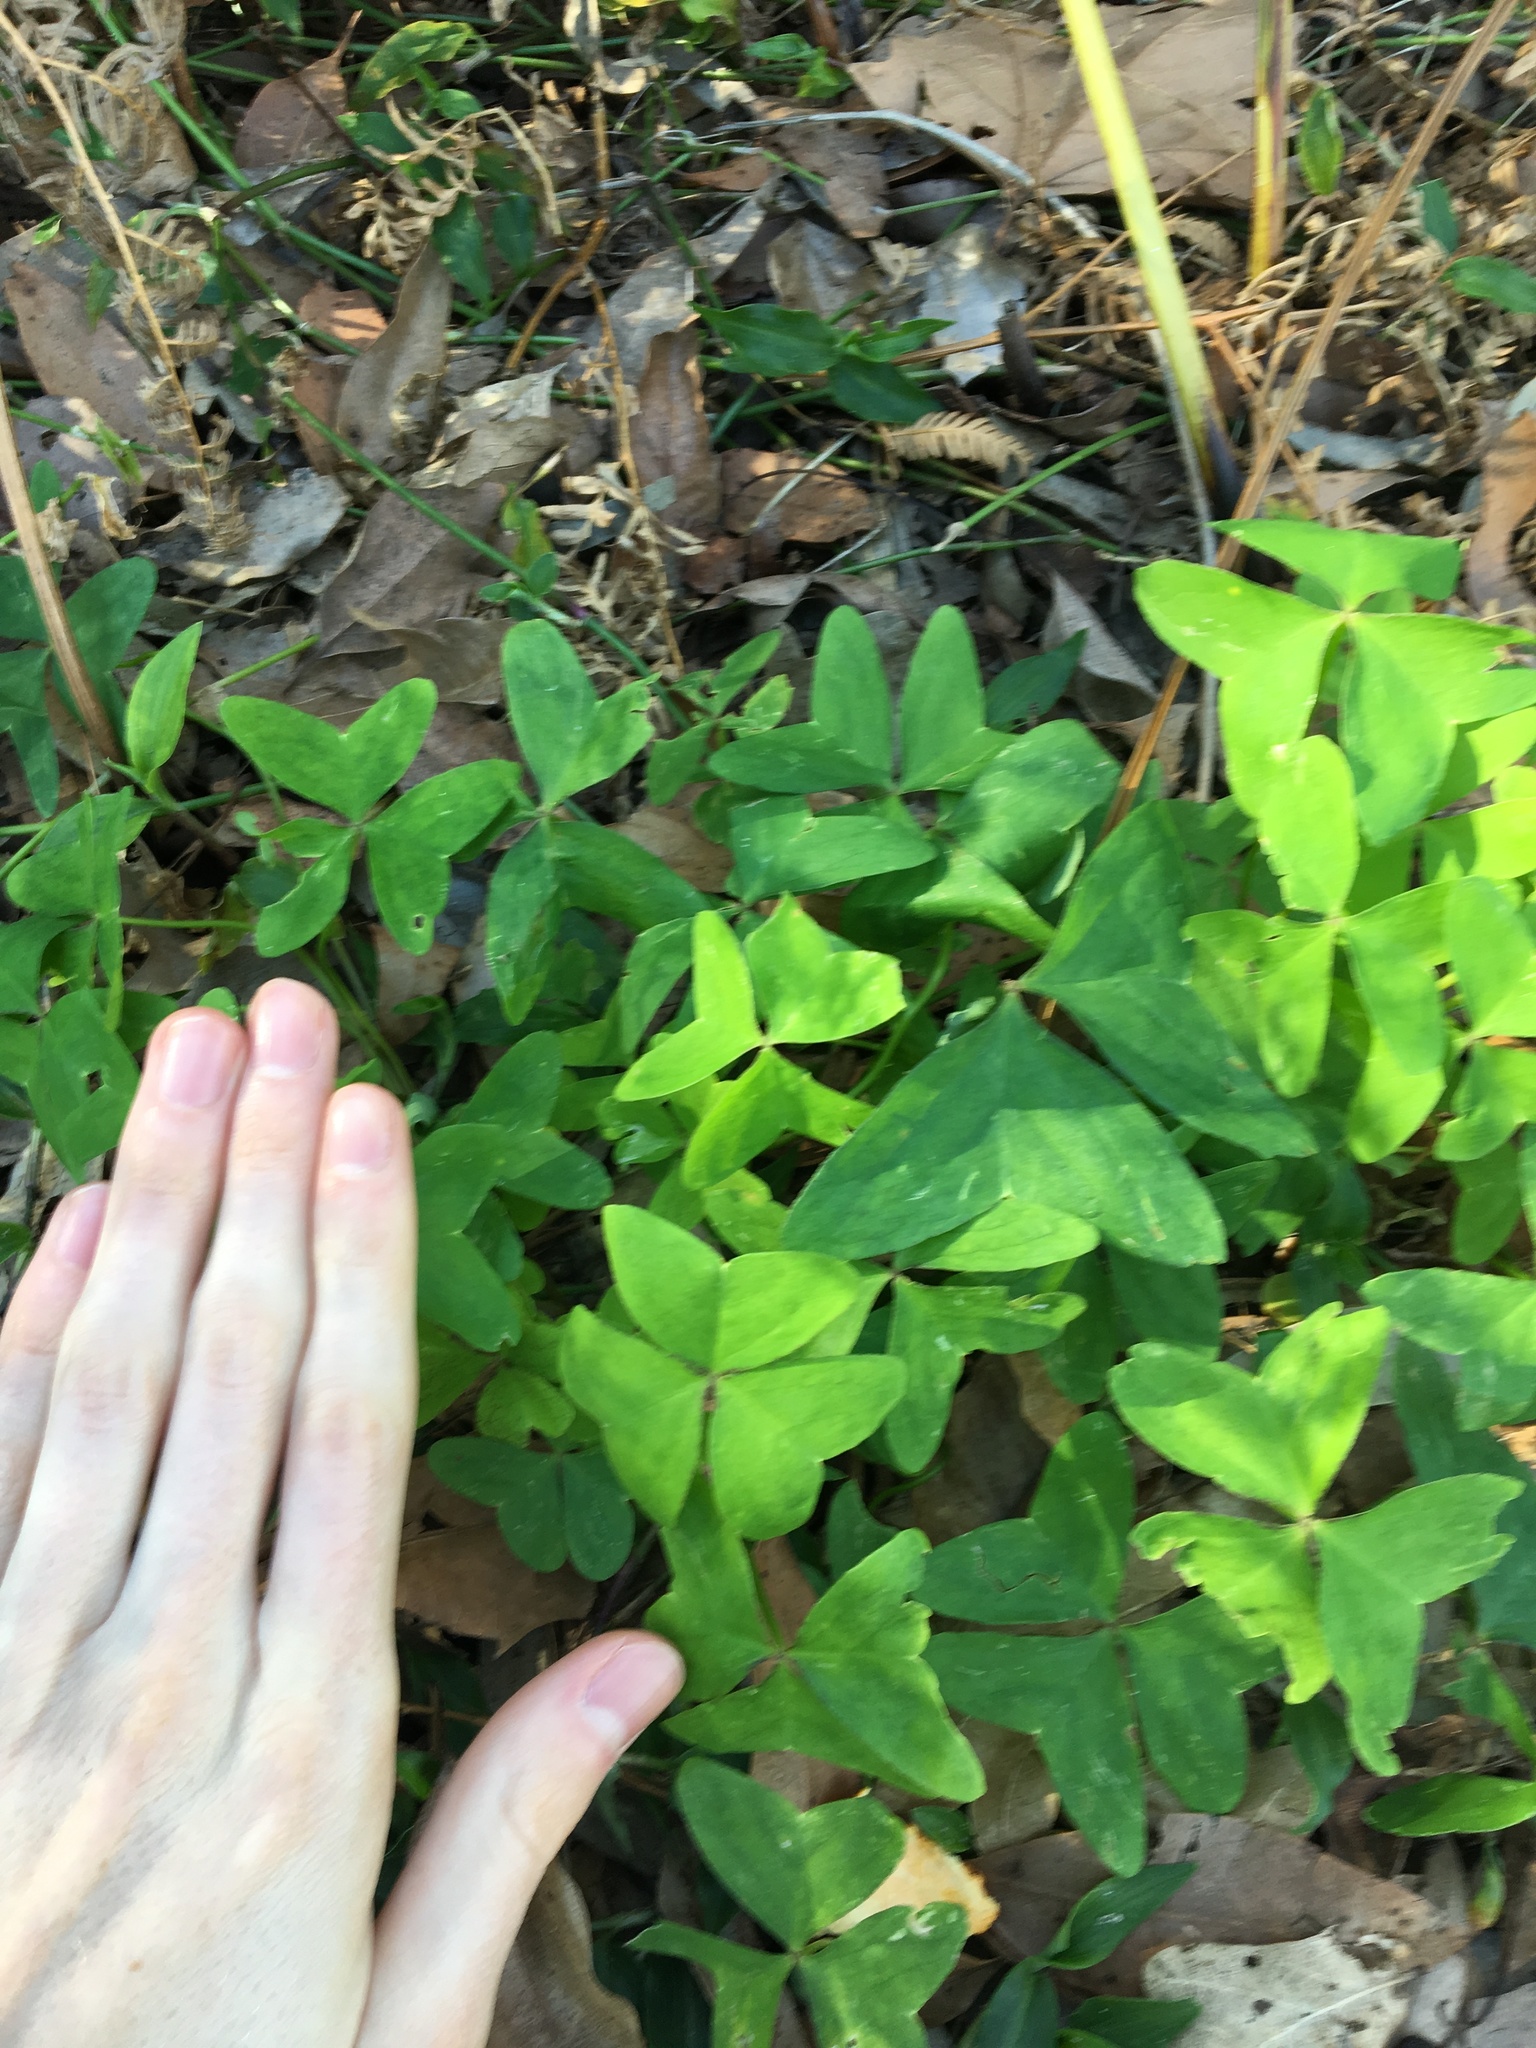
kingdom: Plantae
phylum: Tracheophyta
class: Magnoliopsida
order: Oxalidales
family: Oxalidaceae
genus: Oxalis
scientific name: Oxalis latifolia
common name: Garden pink-sorrel
